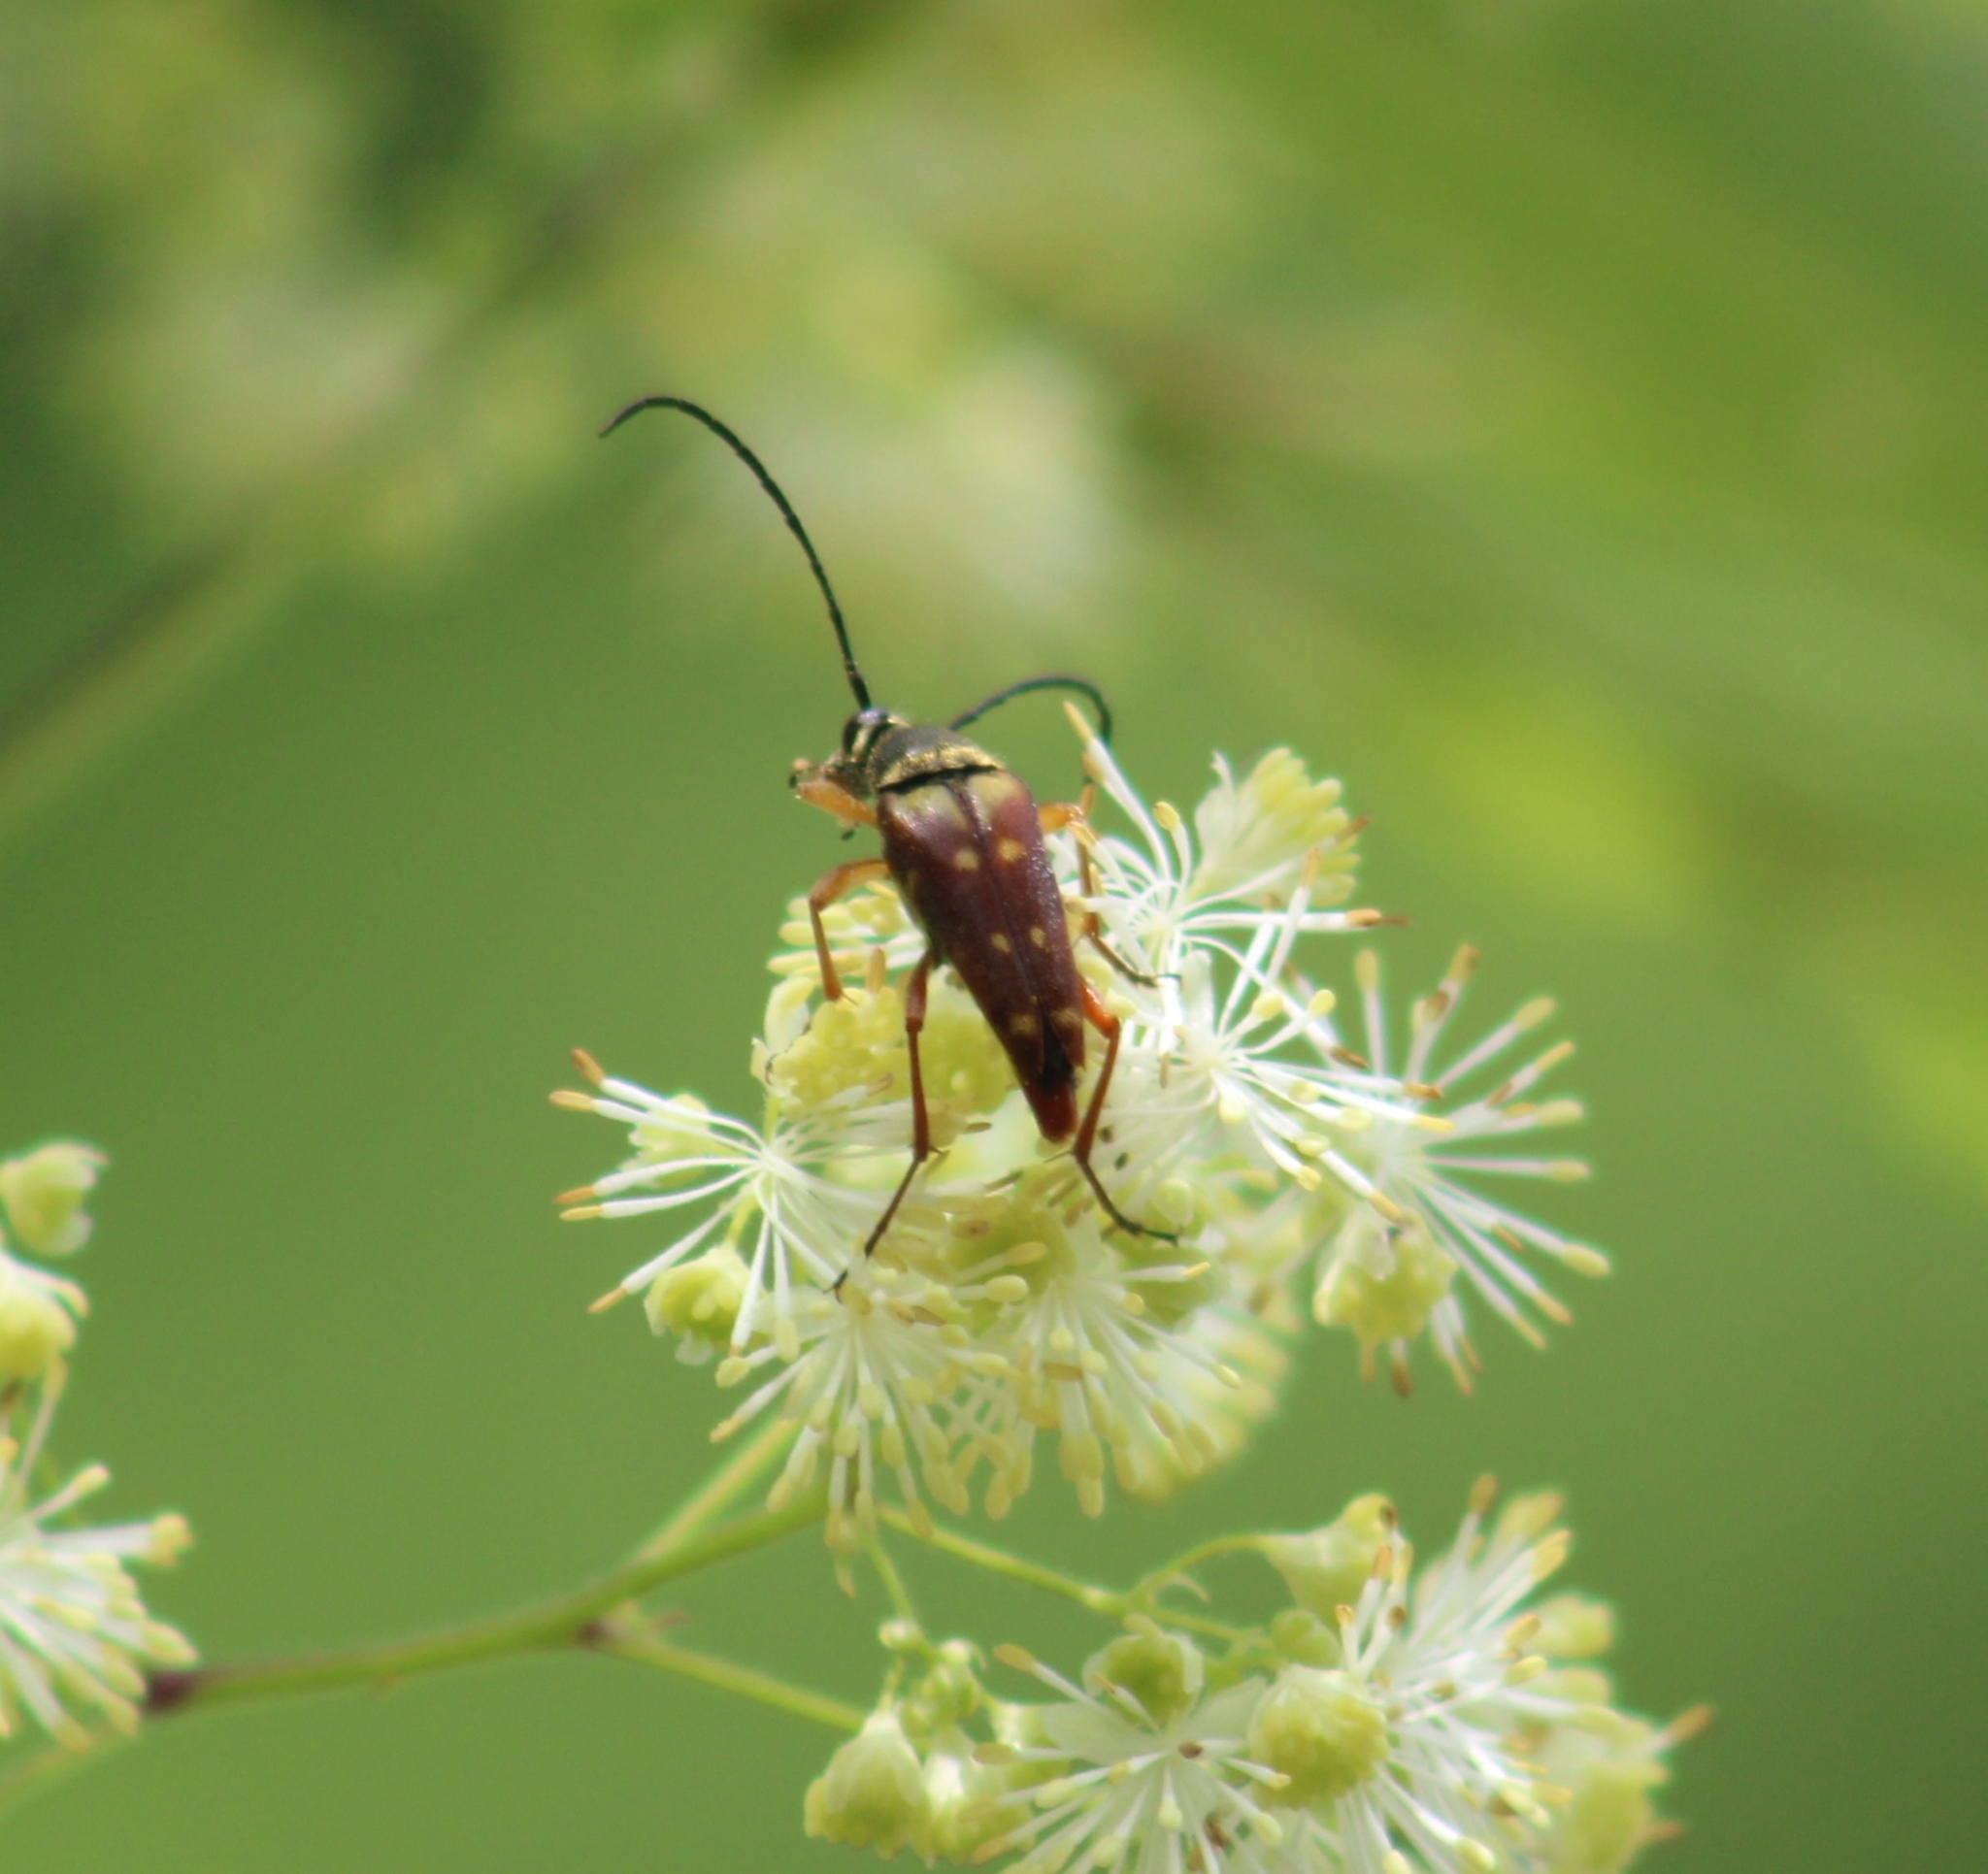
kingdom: Animalia
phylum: Arthropoda
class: Insecta
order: Coleoptera
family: Cerambycidae
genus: Typocerus
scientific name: Typocerus velutinus
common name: Banded longhorn beetle
